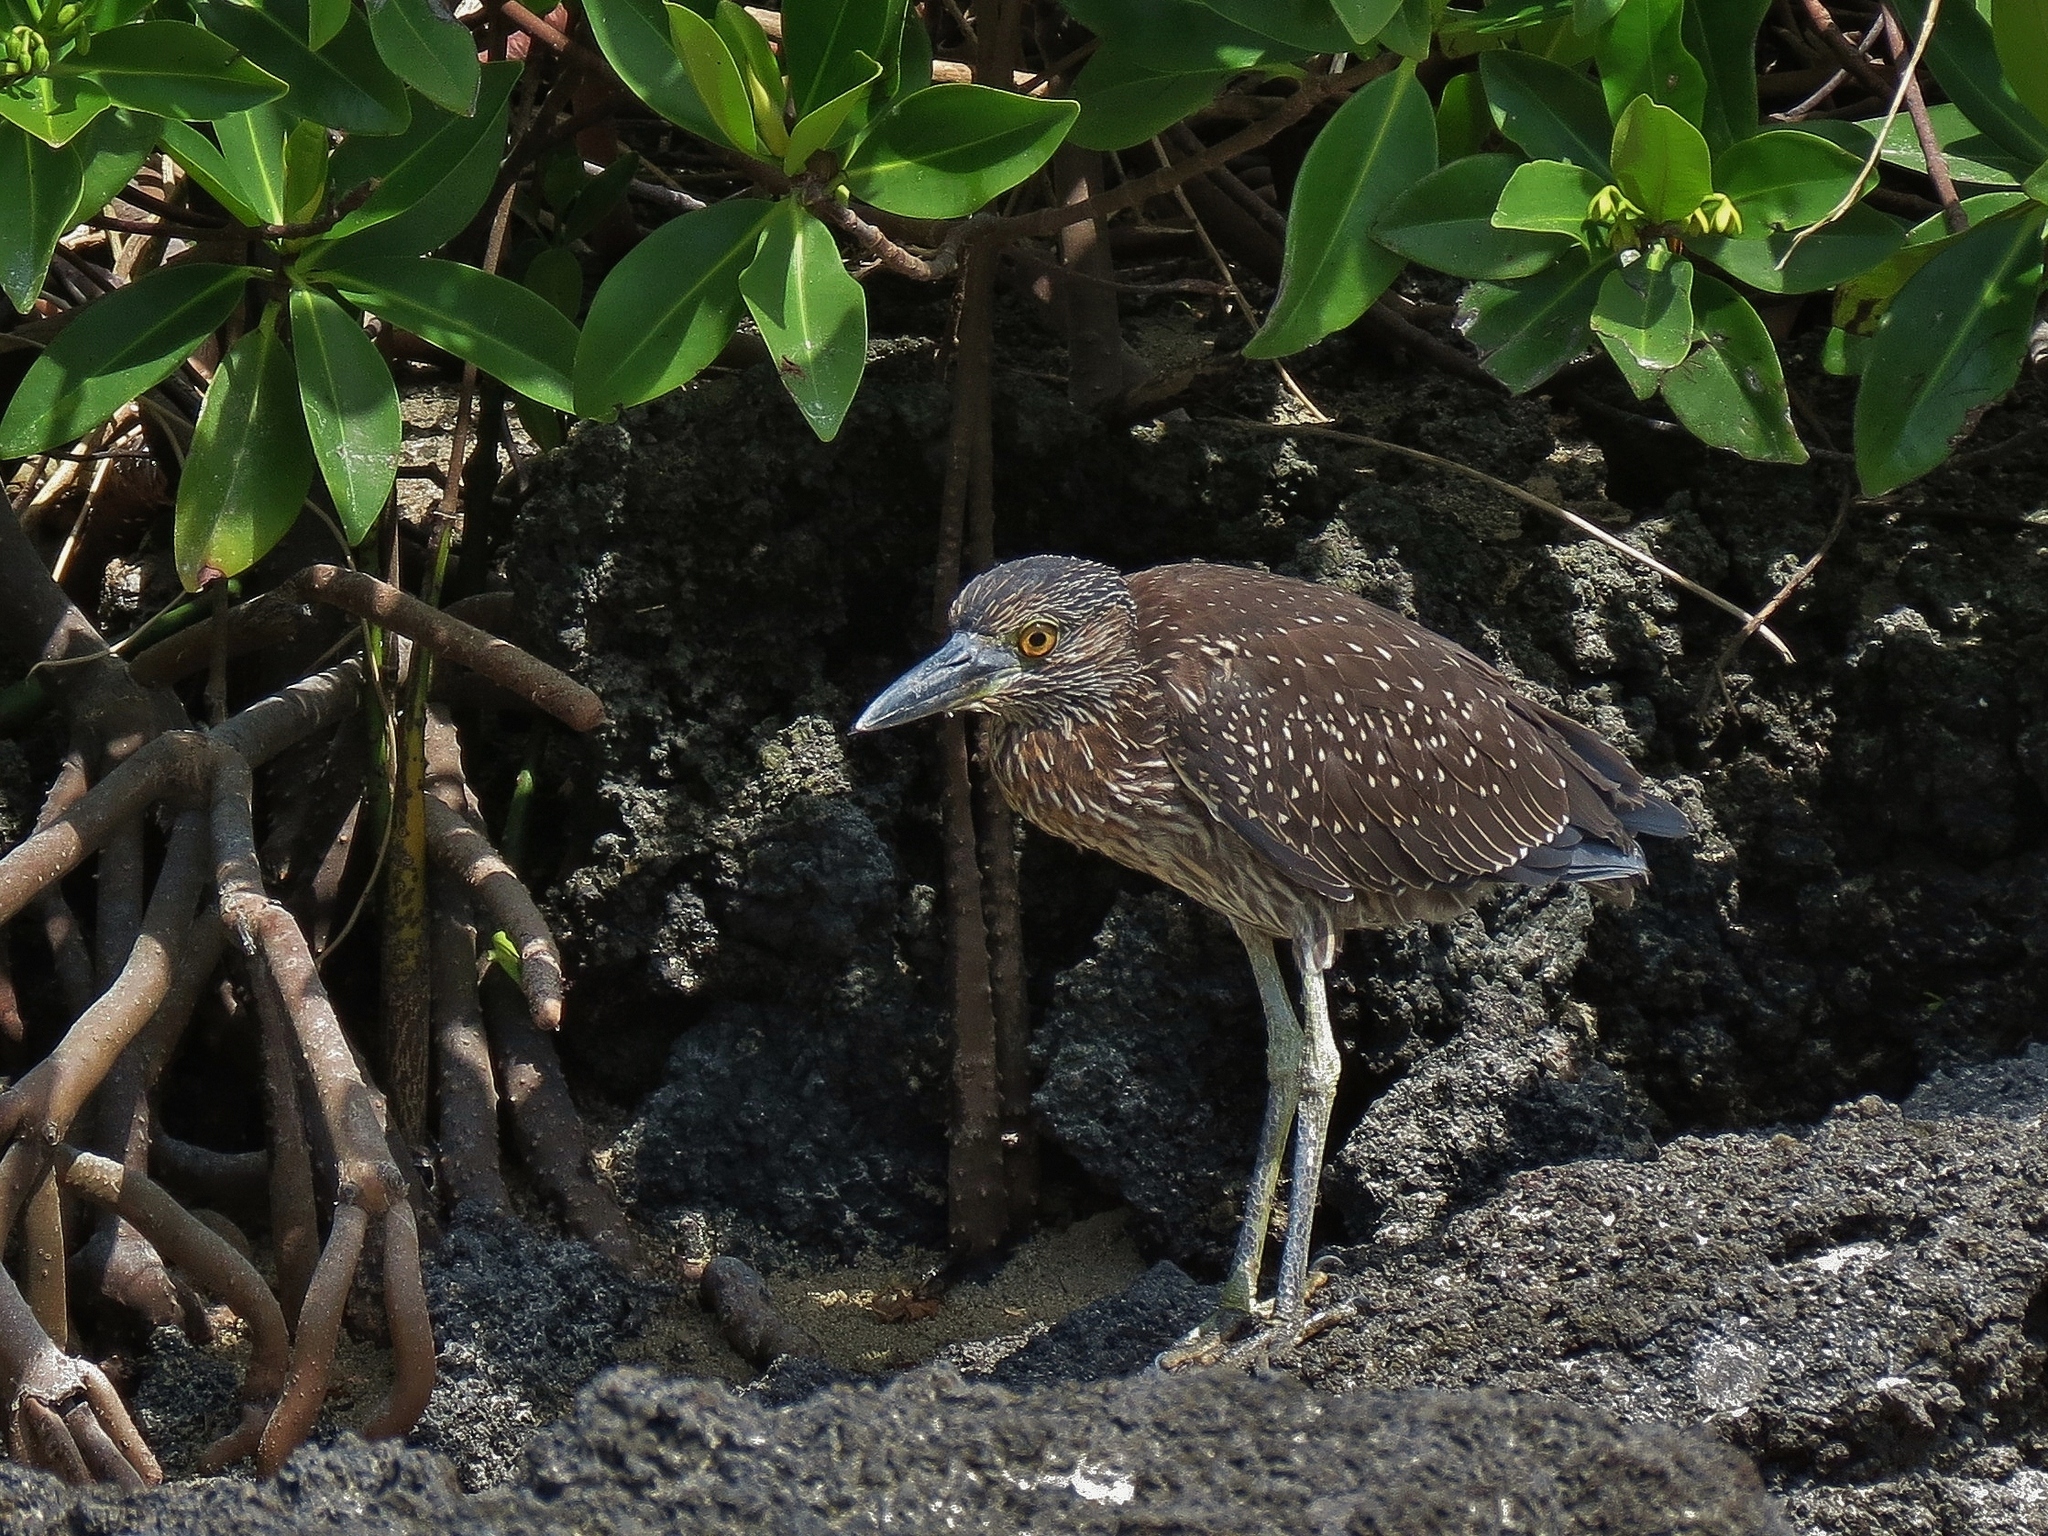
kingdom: Animalia
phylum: Chordata
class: Aves
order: Pelecaniformes
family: Ardeidae
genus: Nyctanassa
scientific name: Nyctanassa violacea
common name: Yellow-crowned night heron
